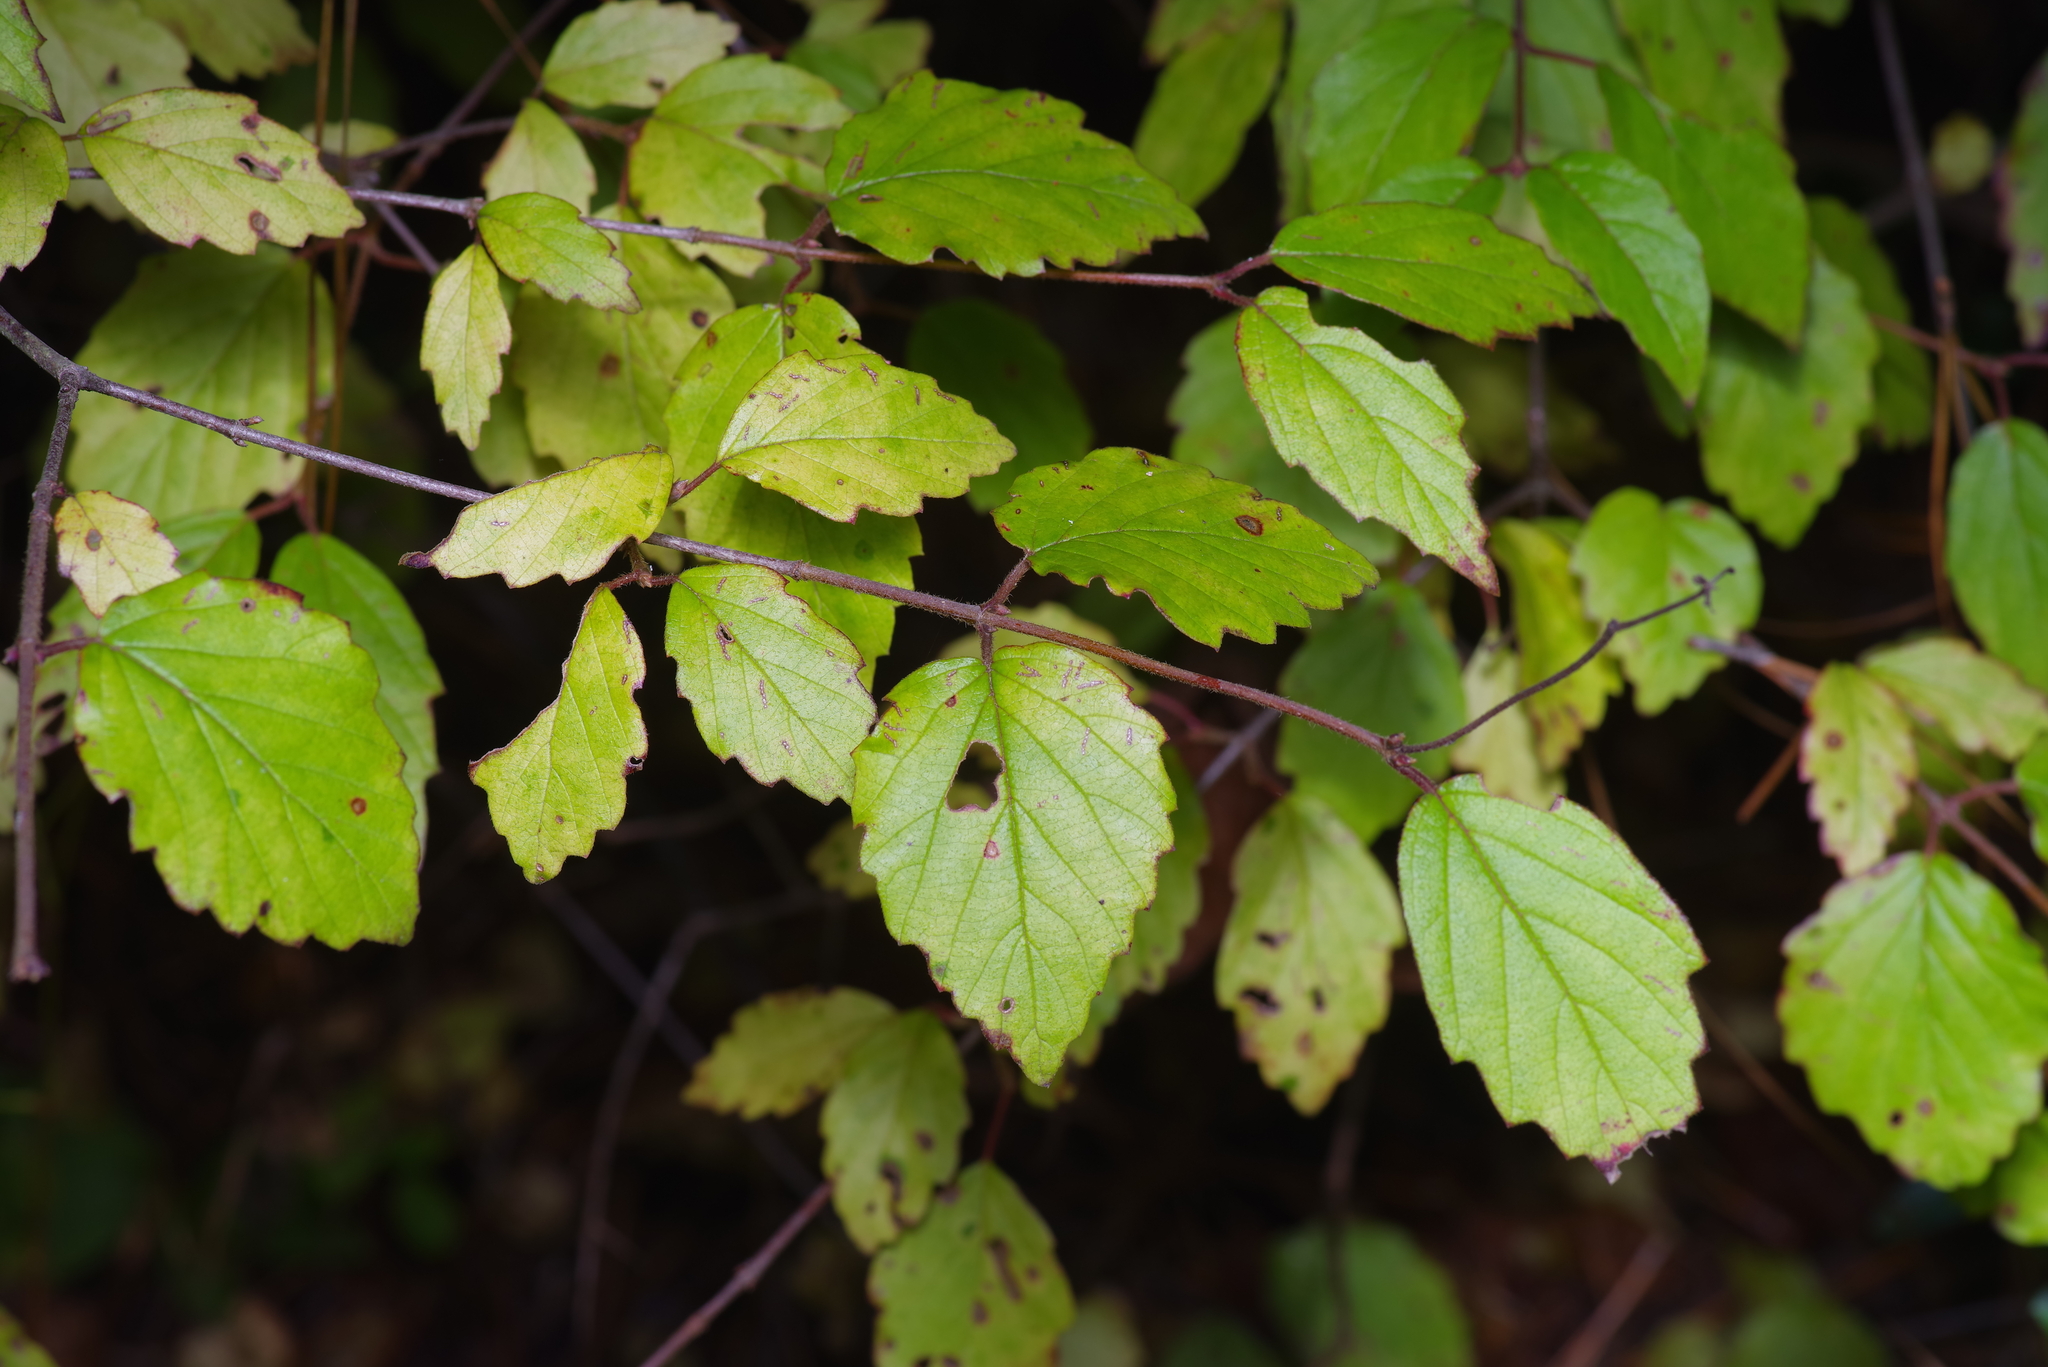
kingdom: Plantae
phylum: Tracheophyta
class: Magnoliopsida
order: Dipsacales
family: Viburnaceae
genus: Viburnum
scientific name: Viburnum scabrellum
